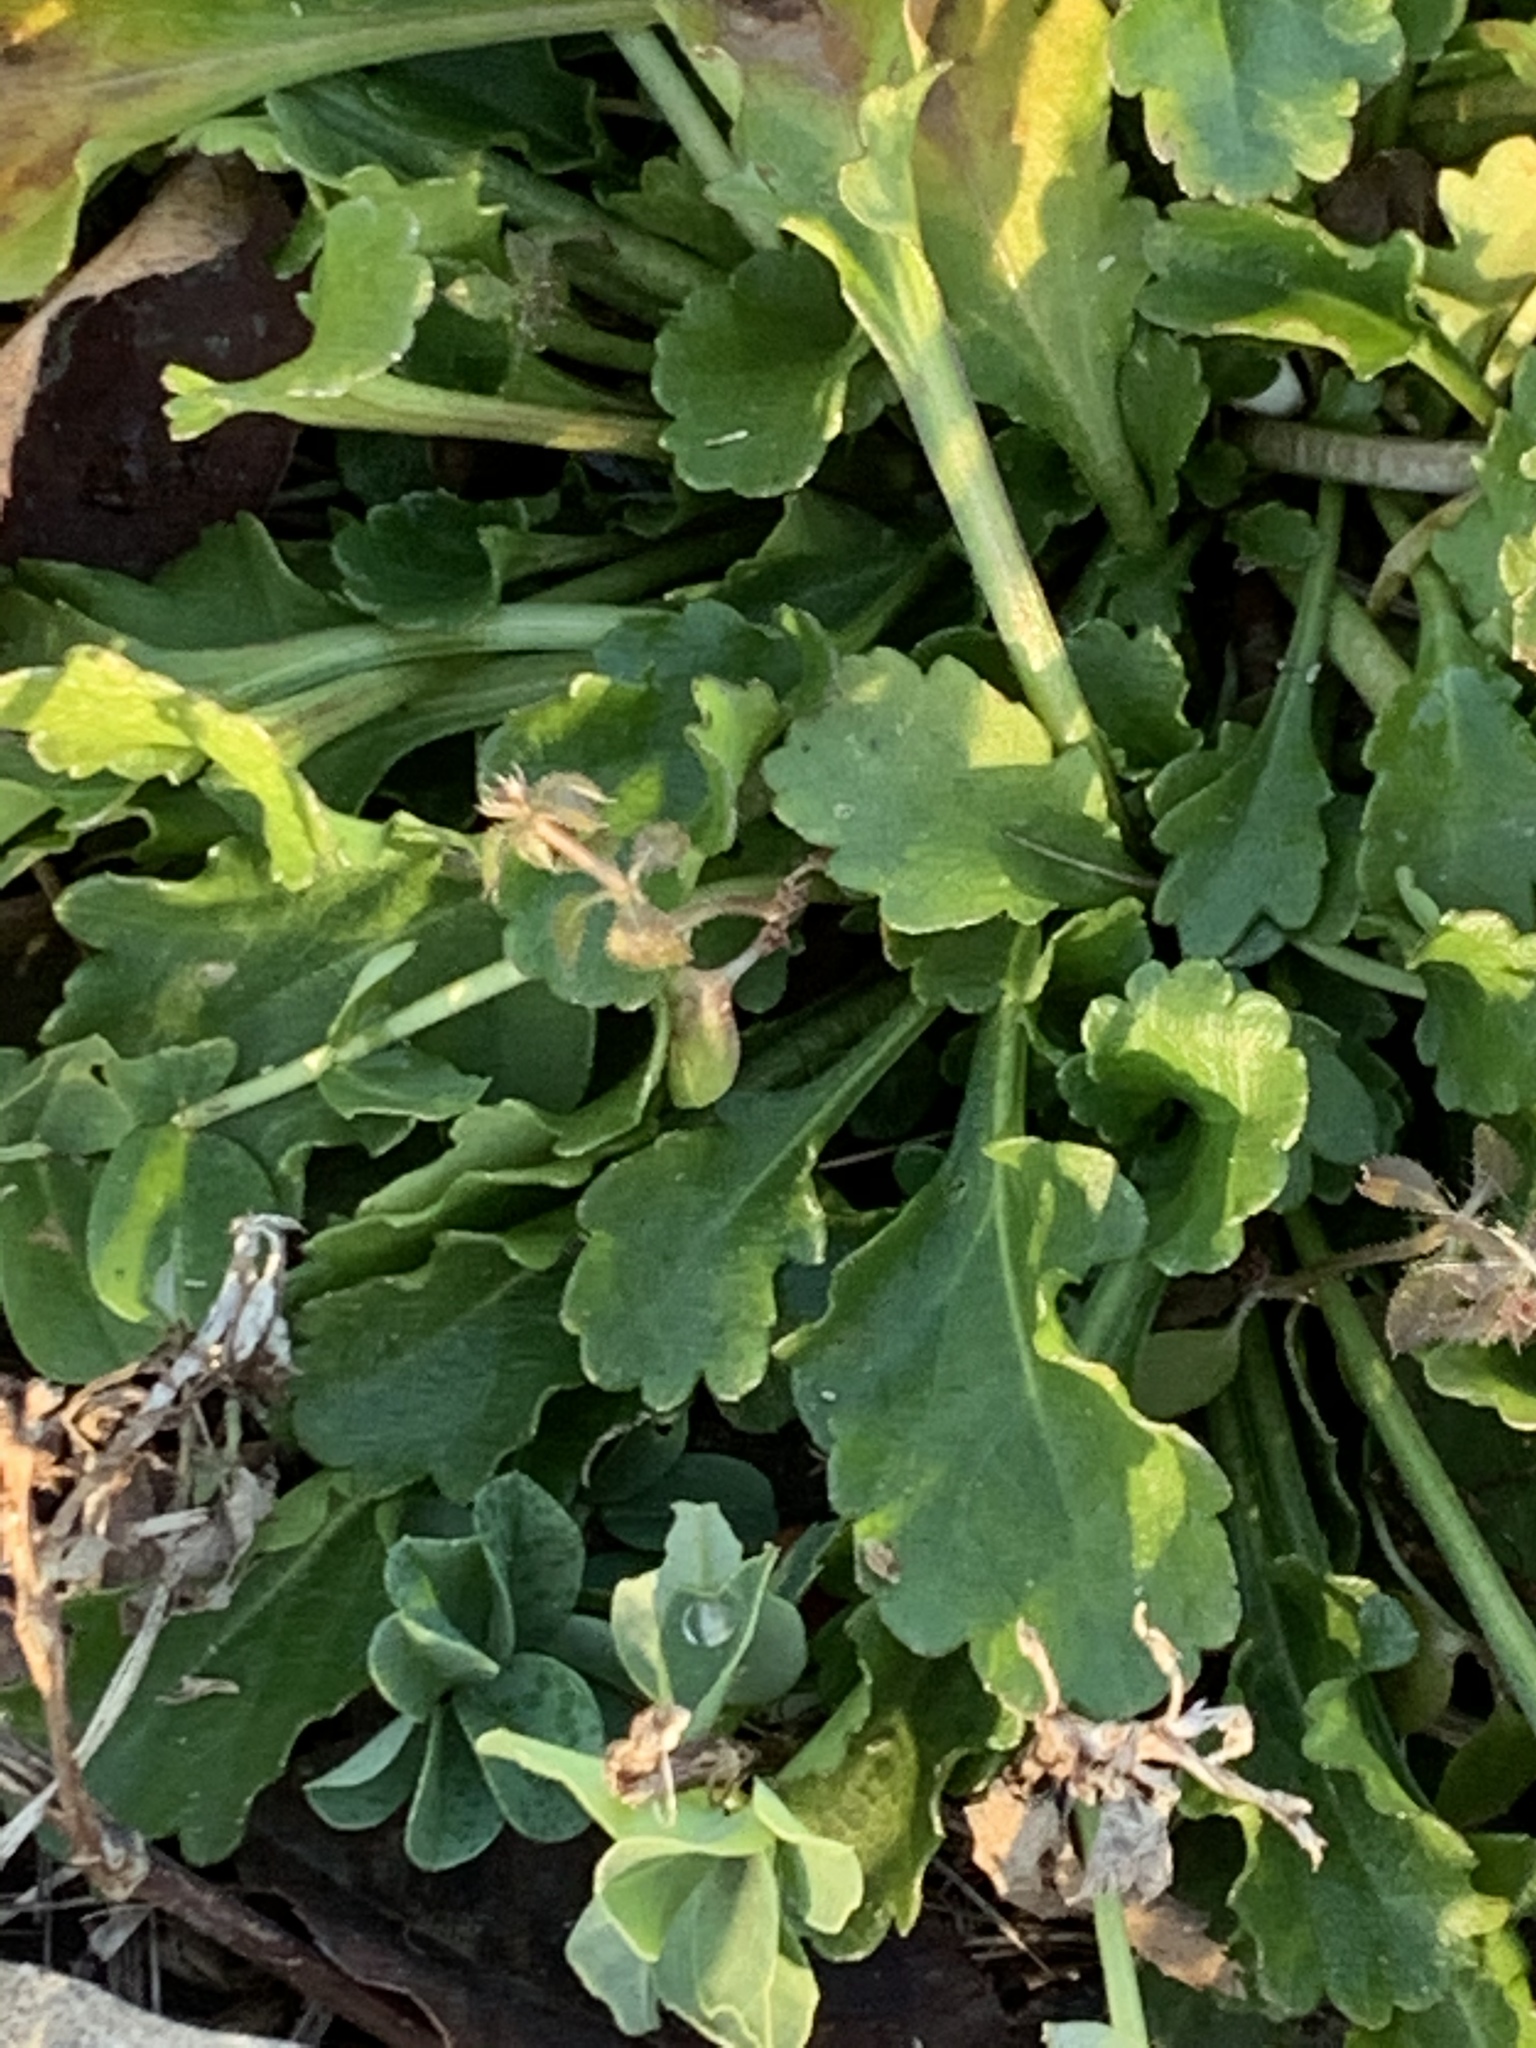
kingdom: Plantae
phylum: Tracheophyta
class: Magnoliopsida
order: Asterales
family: Asteraceae
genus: Leucanthemum
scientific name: Leucanthemum vulgare
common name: Oxeye daisy
